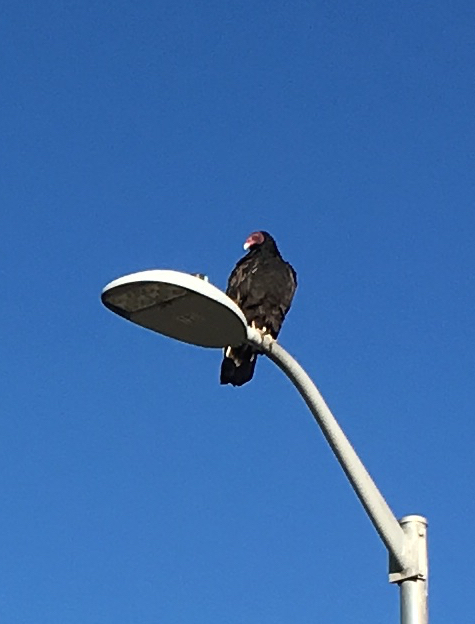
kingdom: Animalia
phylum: Chordata
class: Aves
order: Accipitriformes
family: Cathartidae
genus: Cathartes
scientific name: Cathartes aura
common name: Turkey vulture
